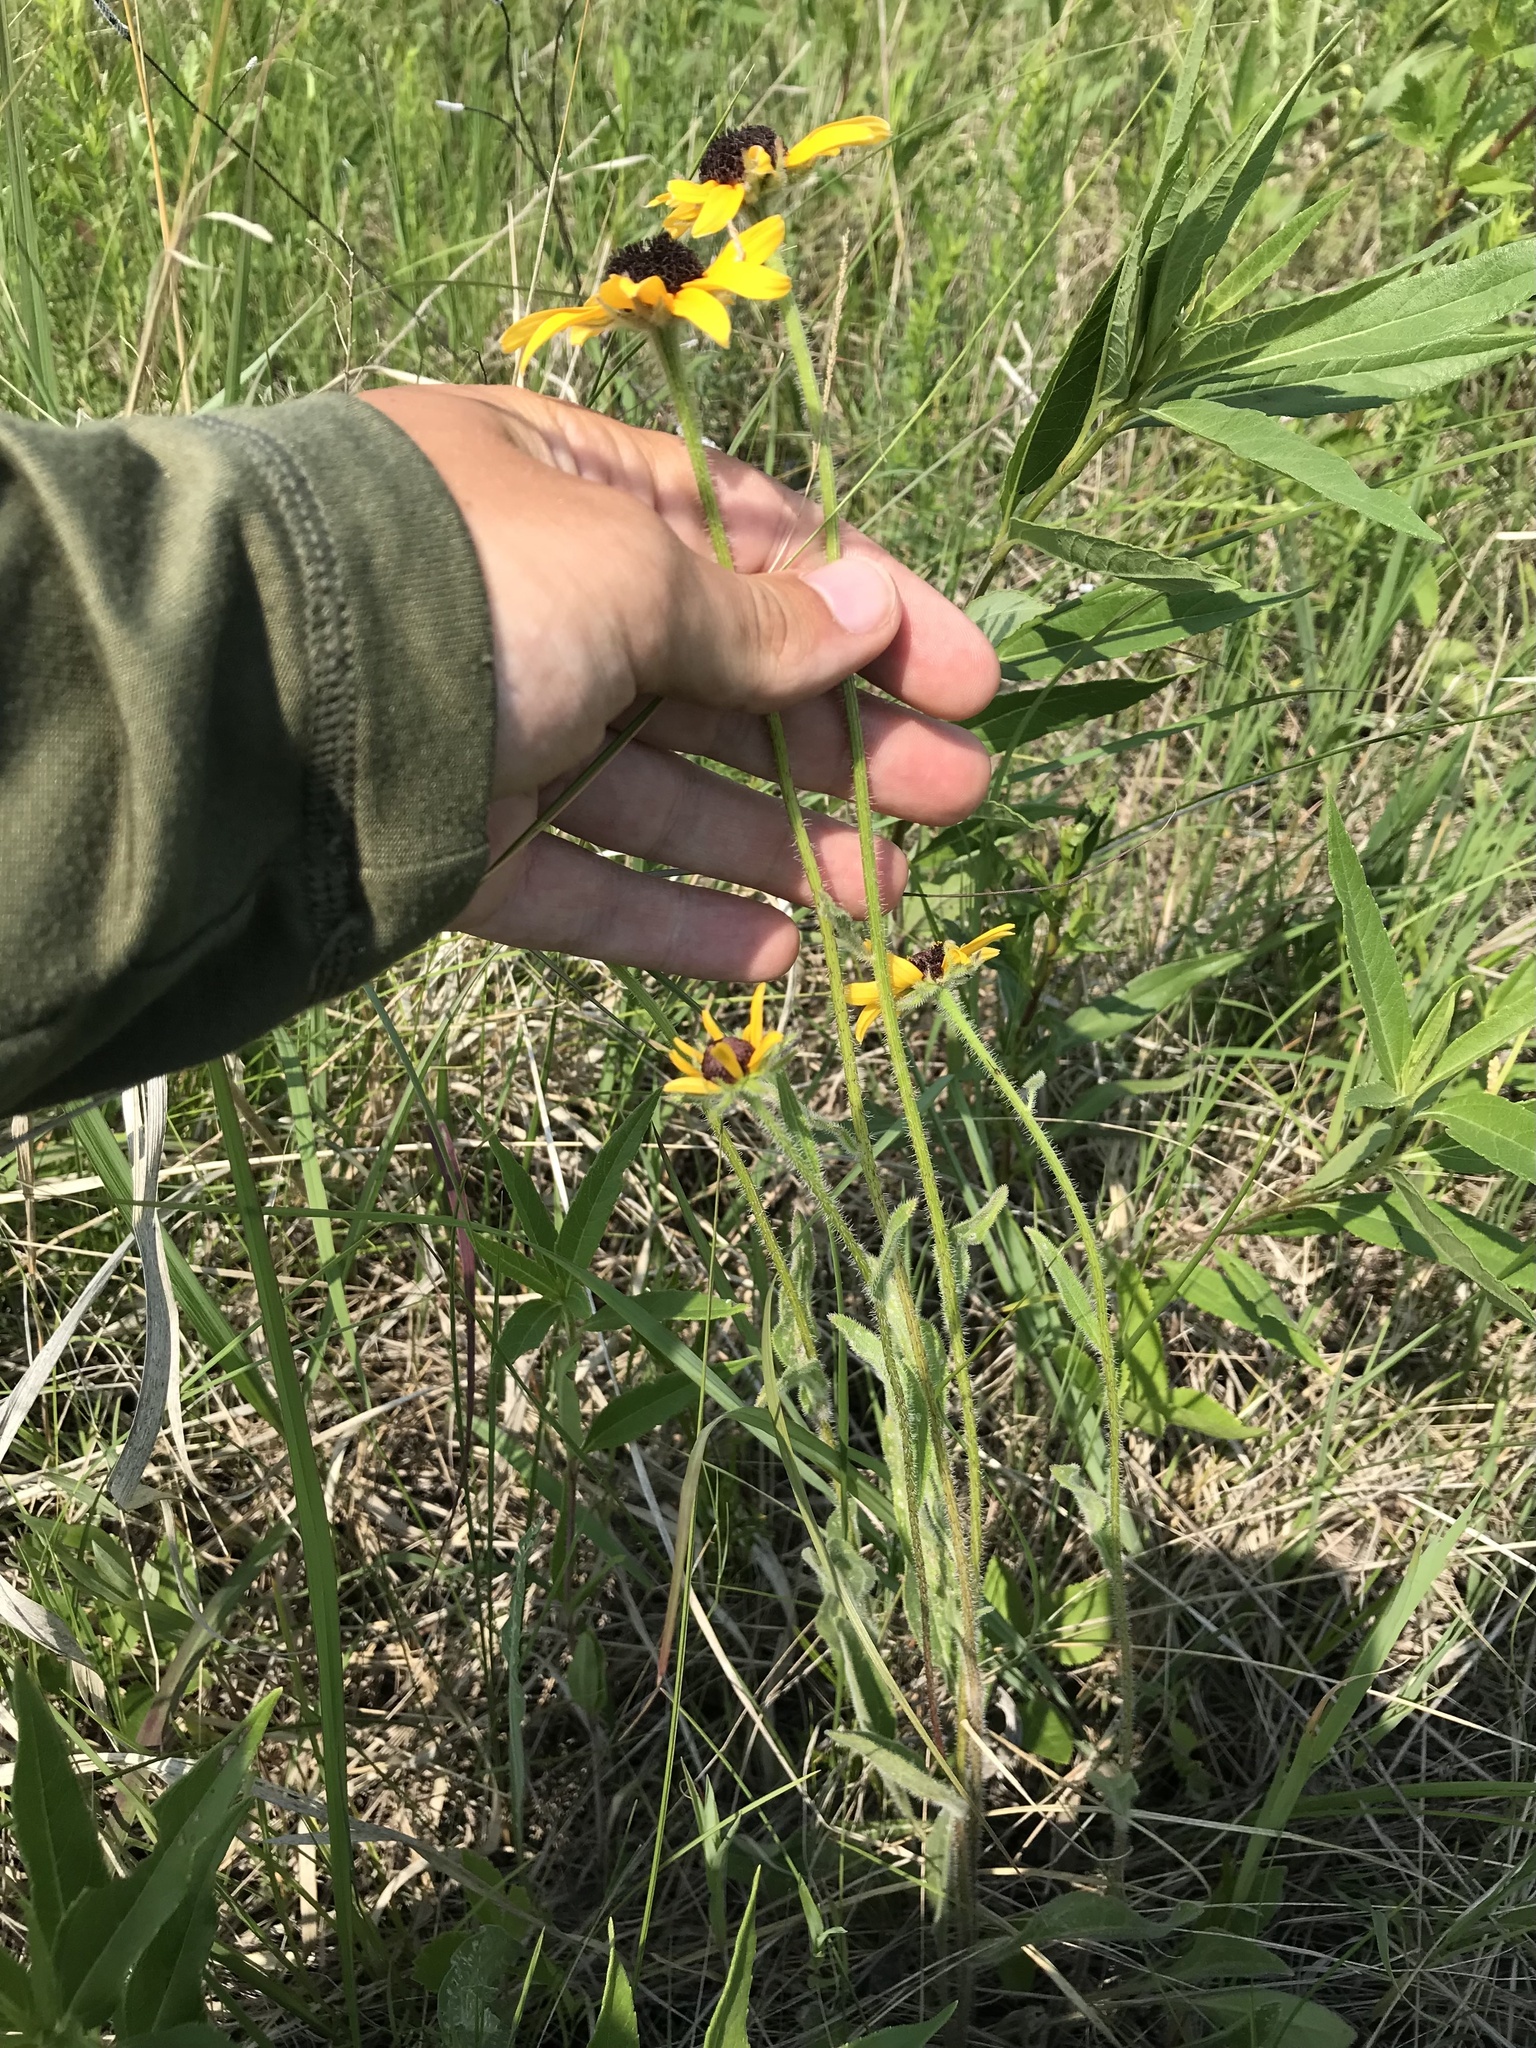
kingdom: Plantae
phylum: Tracheophyta
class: Magnoliopsida
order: Asterales
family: Asteraceae
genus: Rudbeckia
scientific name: Rudbeckia hirta
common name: Black-eyed-susan
